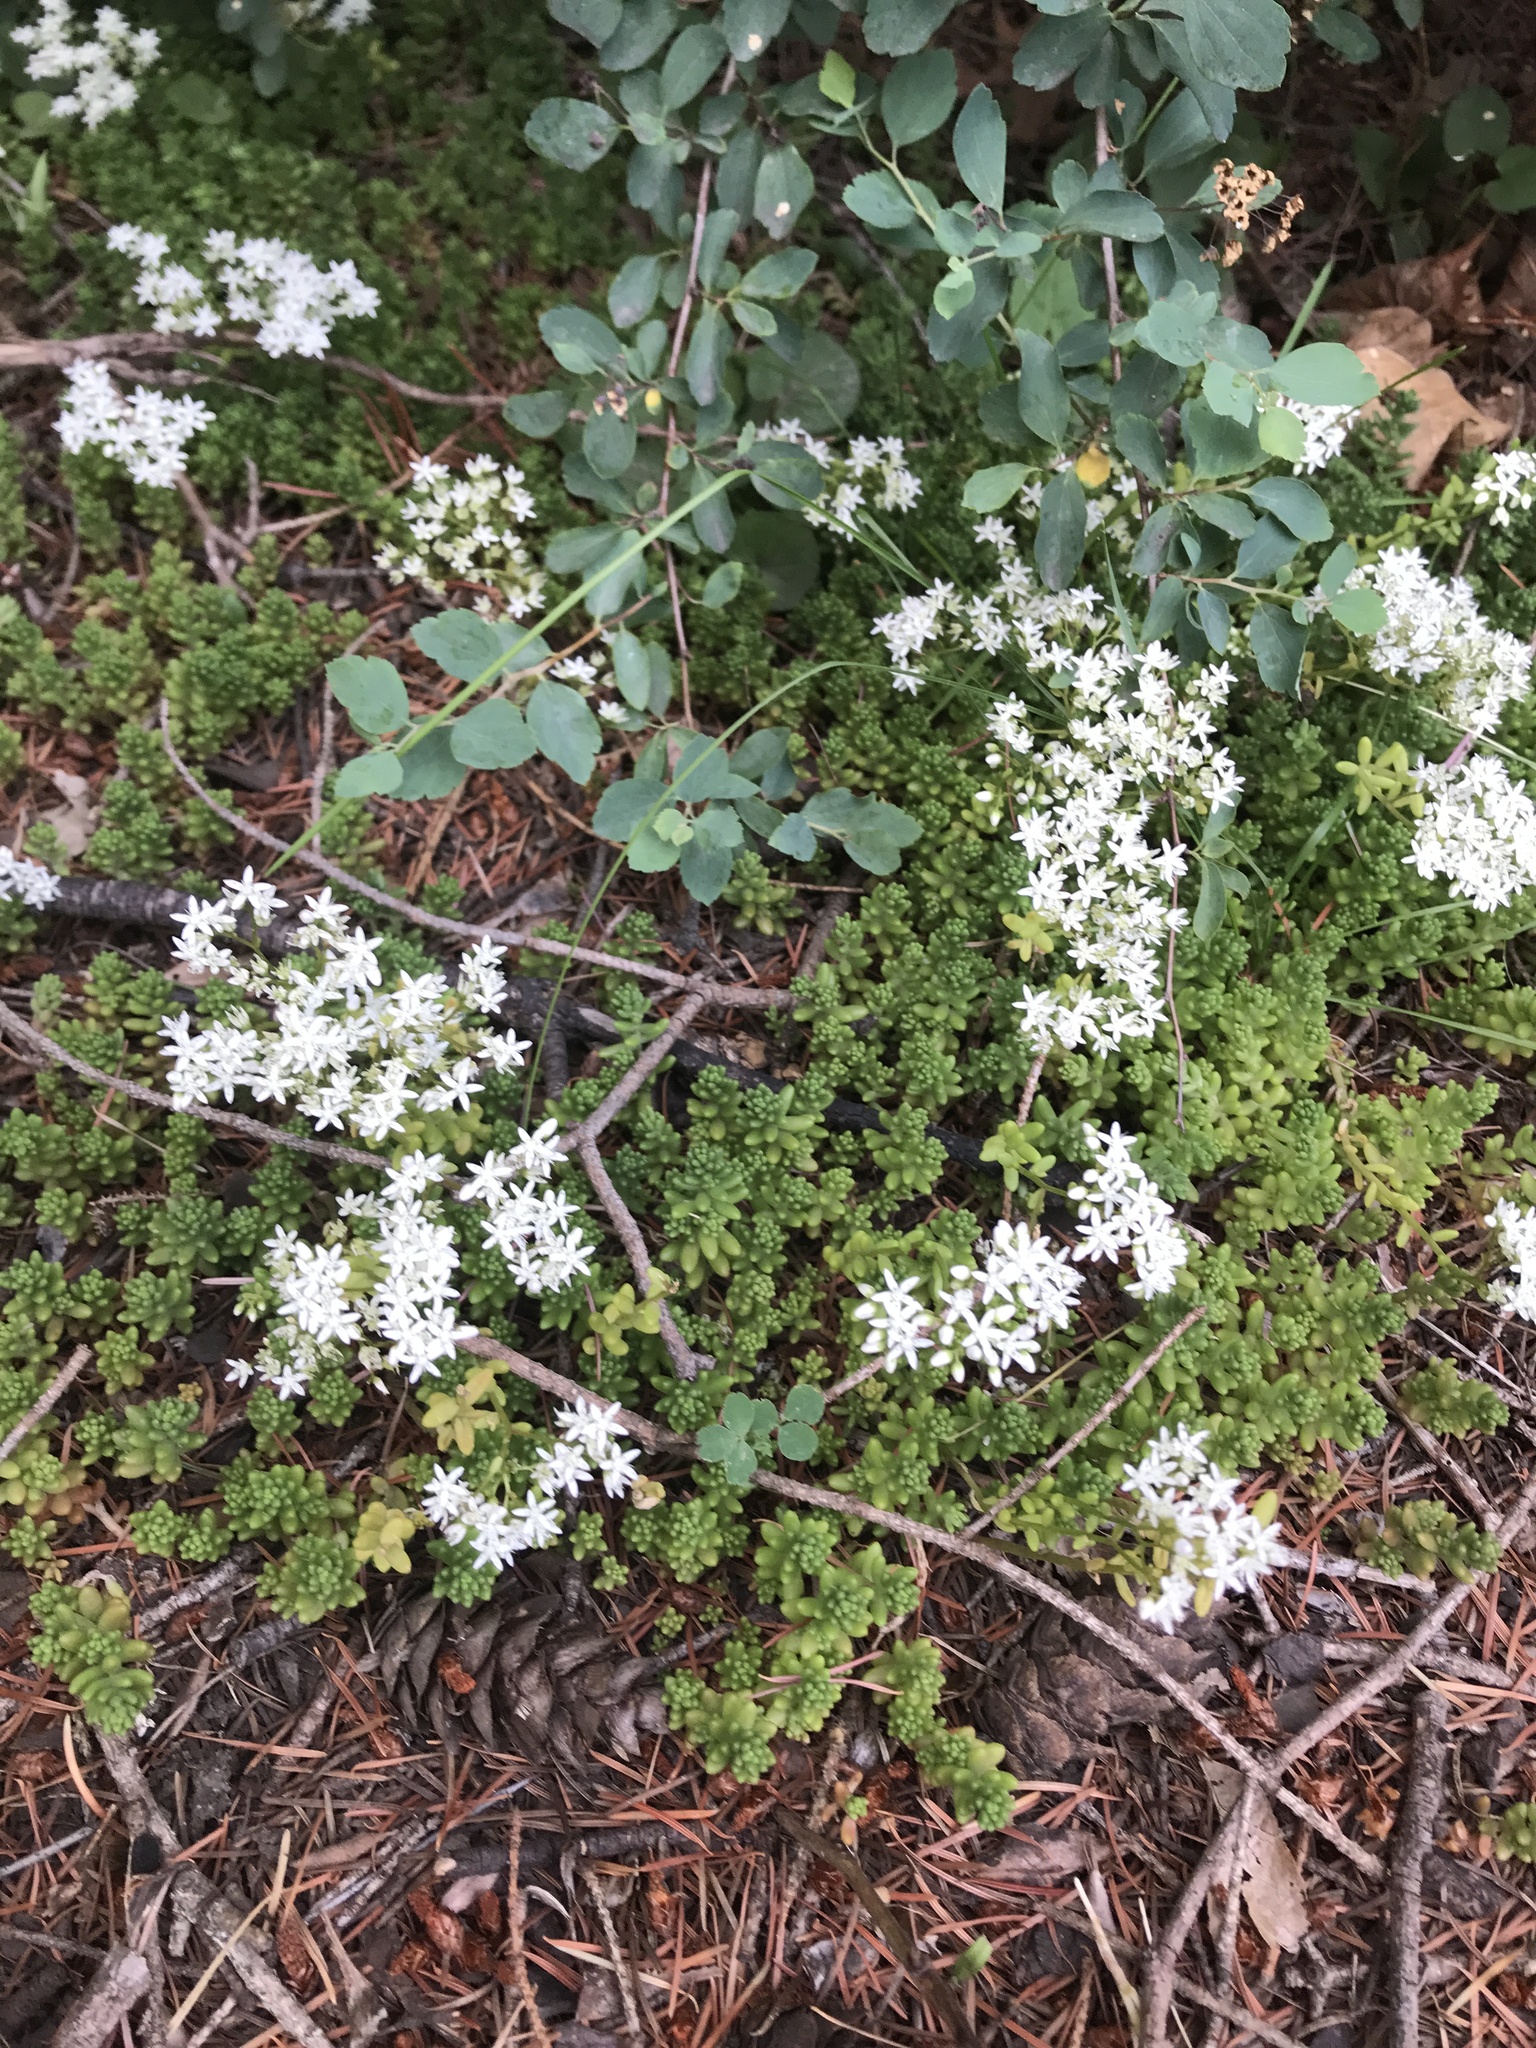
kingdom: Plantae
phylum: Tracheophyta
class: Magnoliopsida
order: Saxifragales
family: Crassulaceae
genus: Sedum
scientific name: Sedum album
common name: White stonecrop
